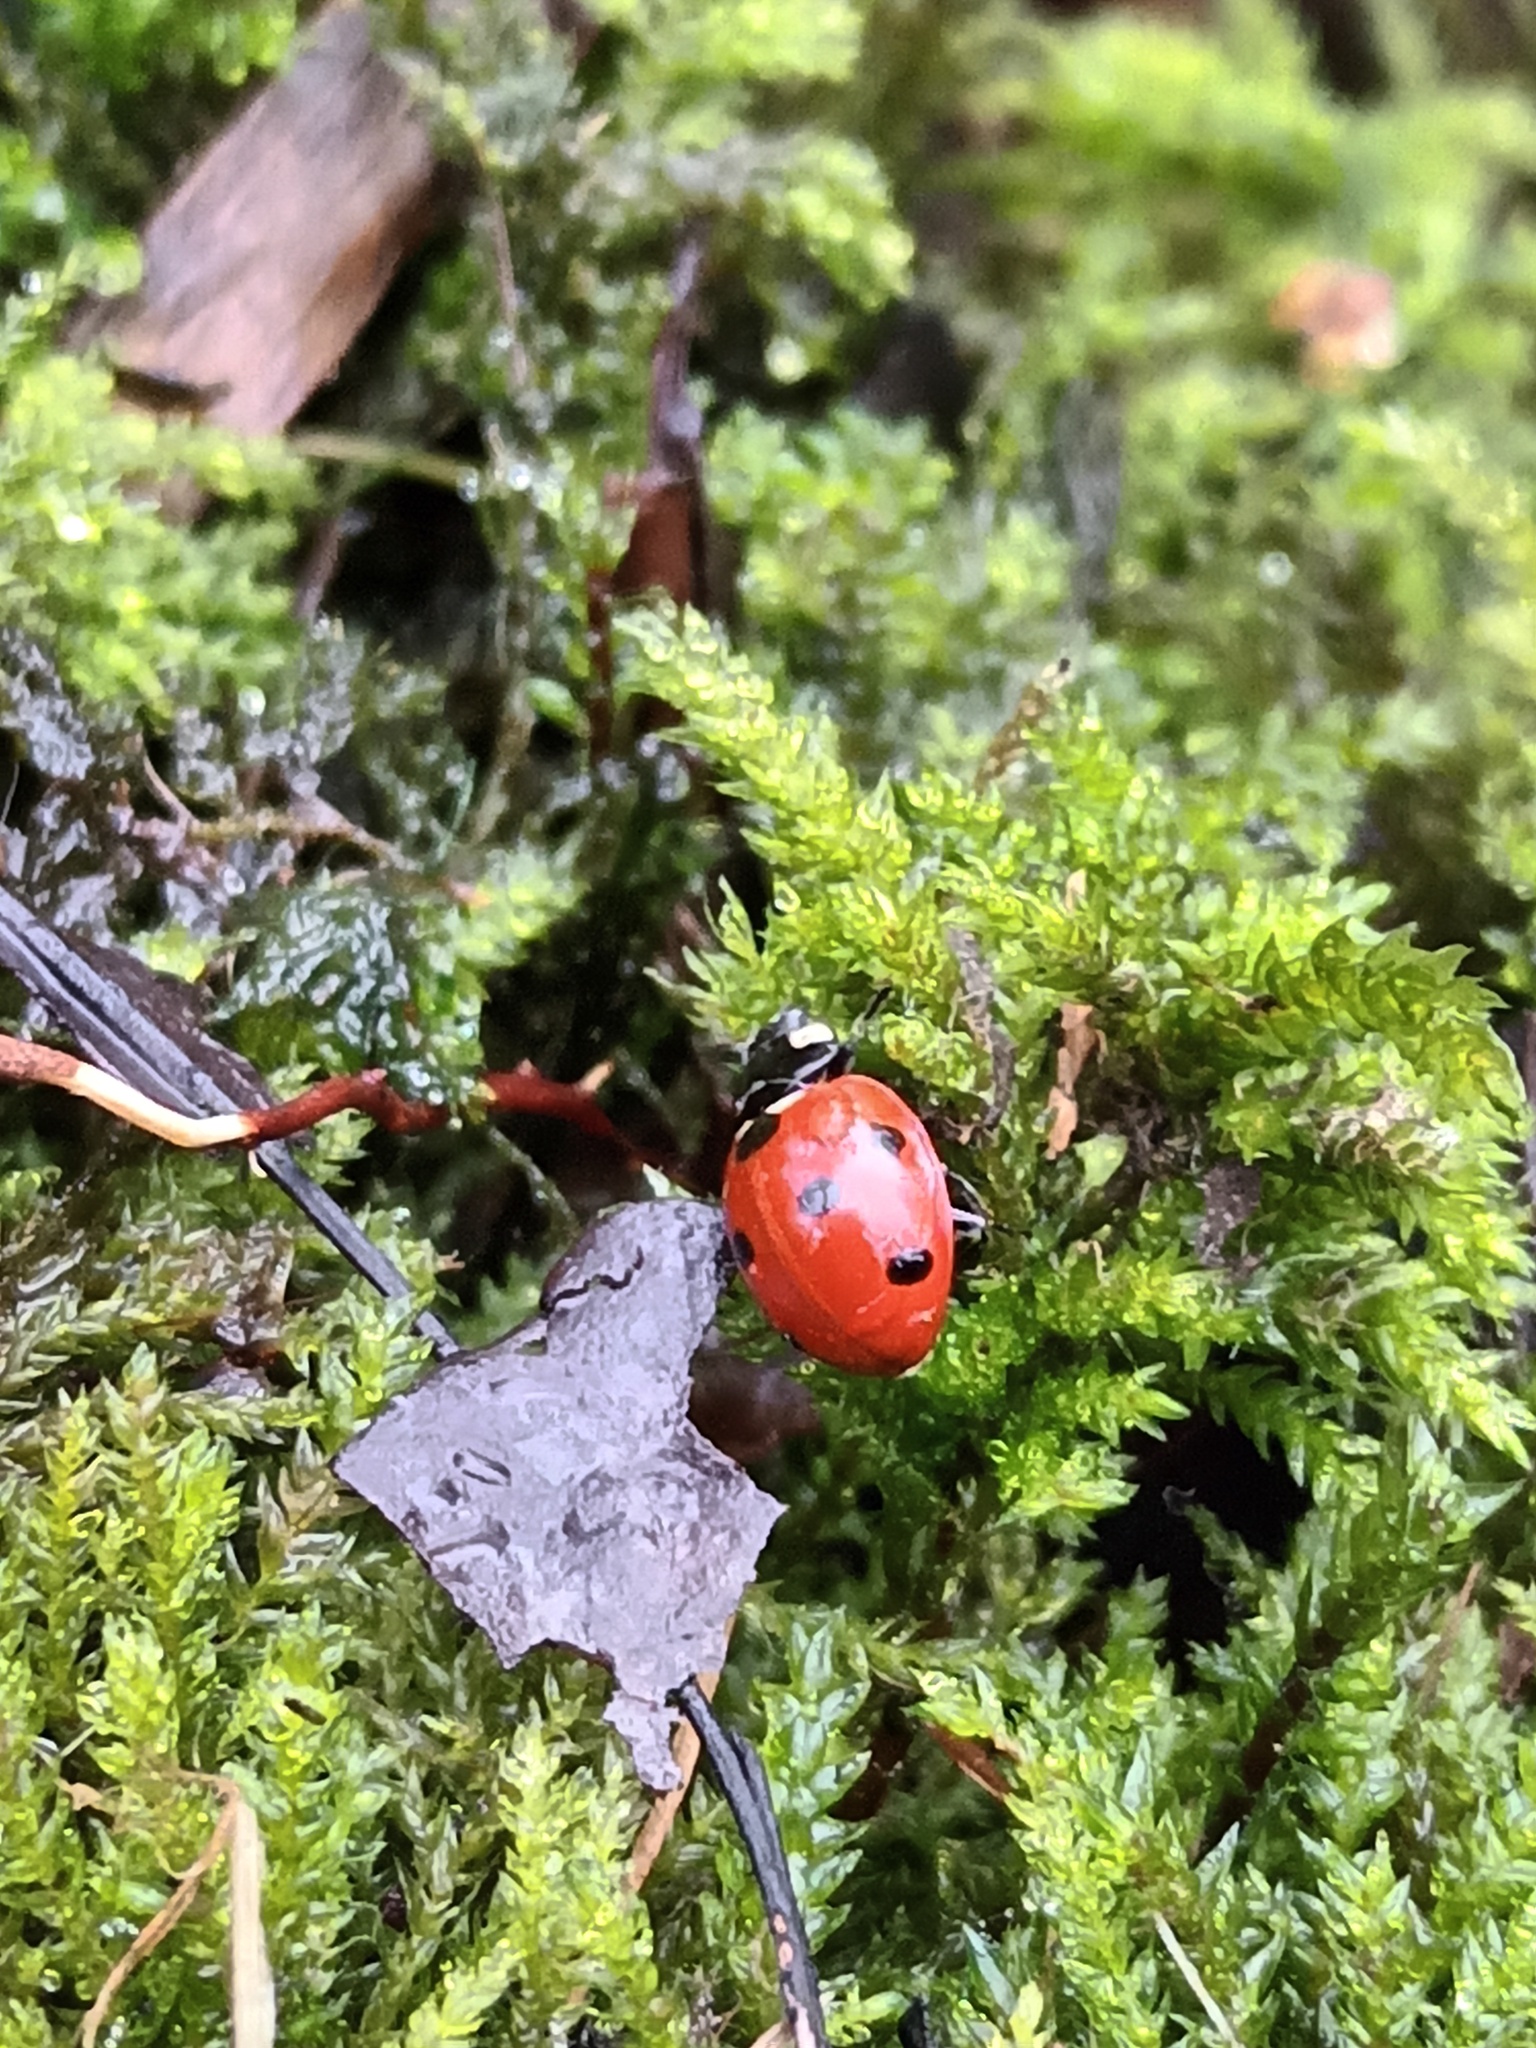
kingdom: Animalia
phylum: Arthropoda
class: Insecta
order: Coleoptera
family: Coccinellidae
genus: Coccinella
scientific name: Coccinella septempunctata
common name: Sevenspotted lady beetle
